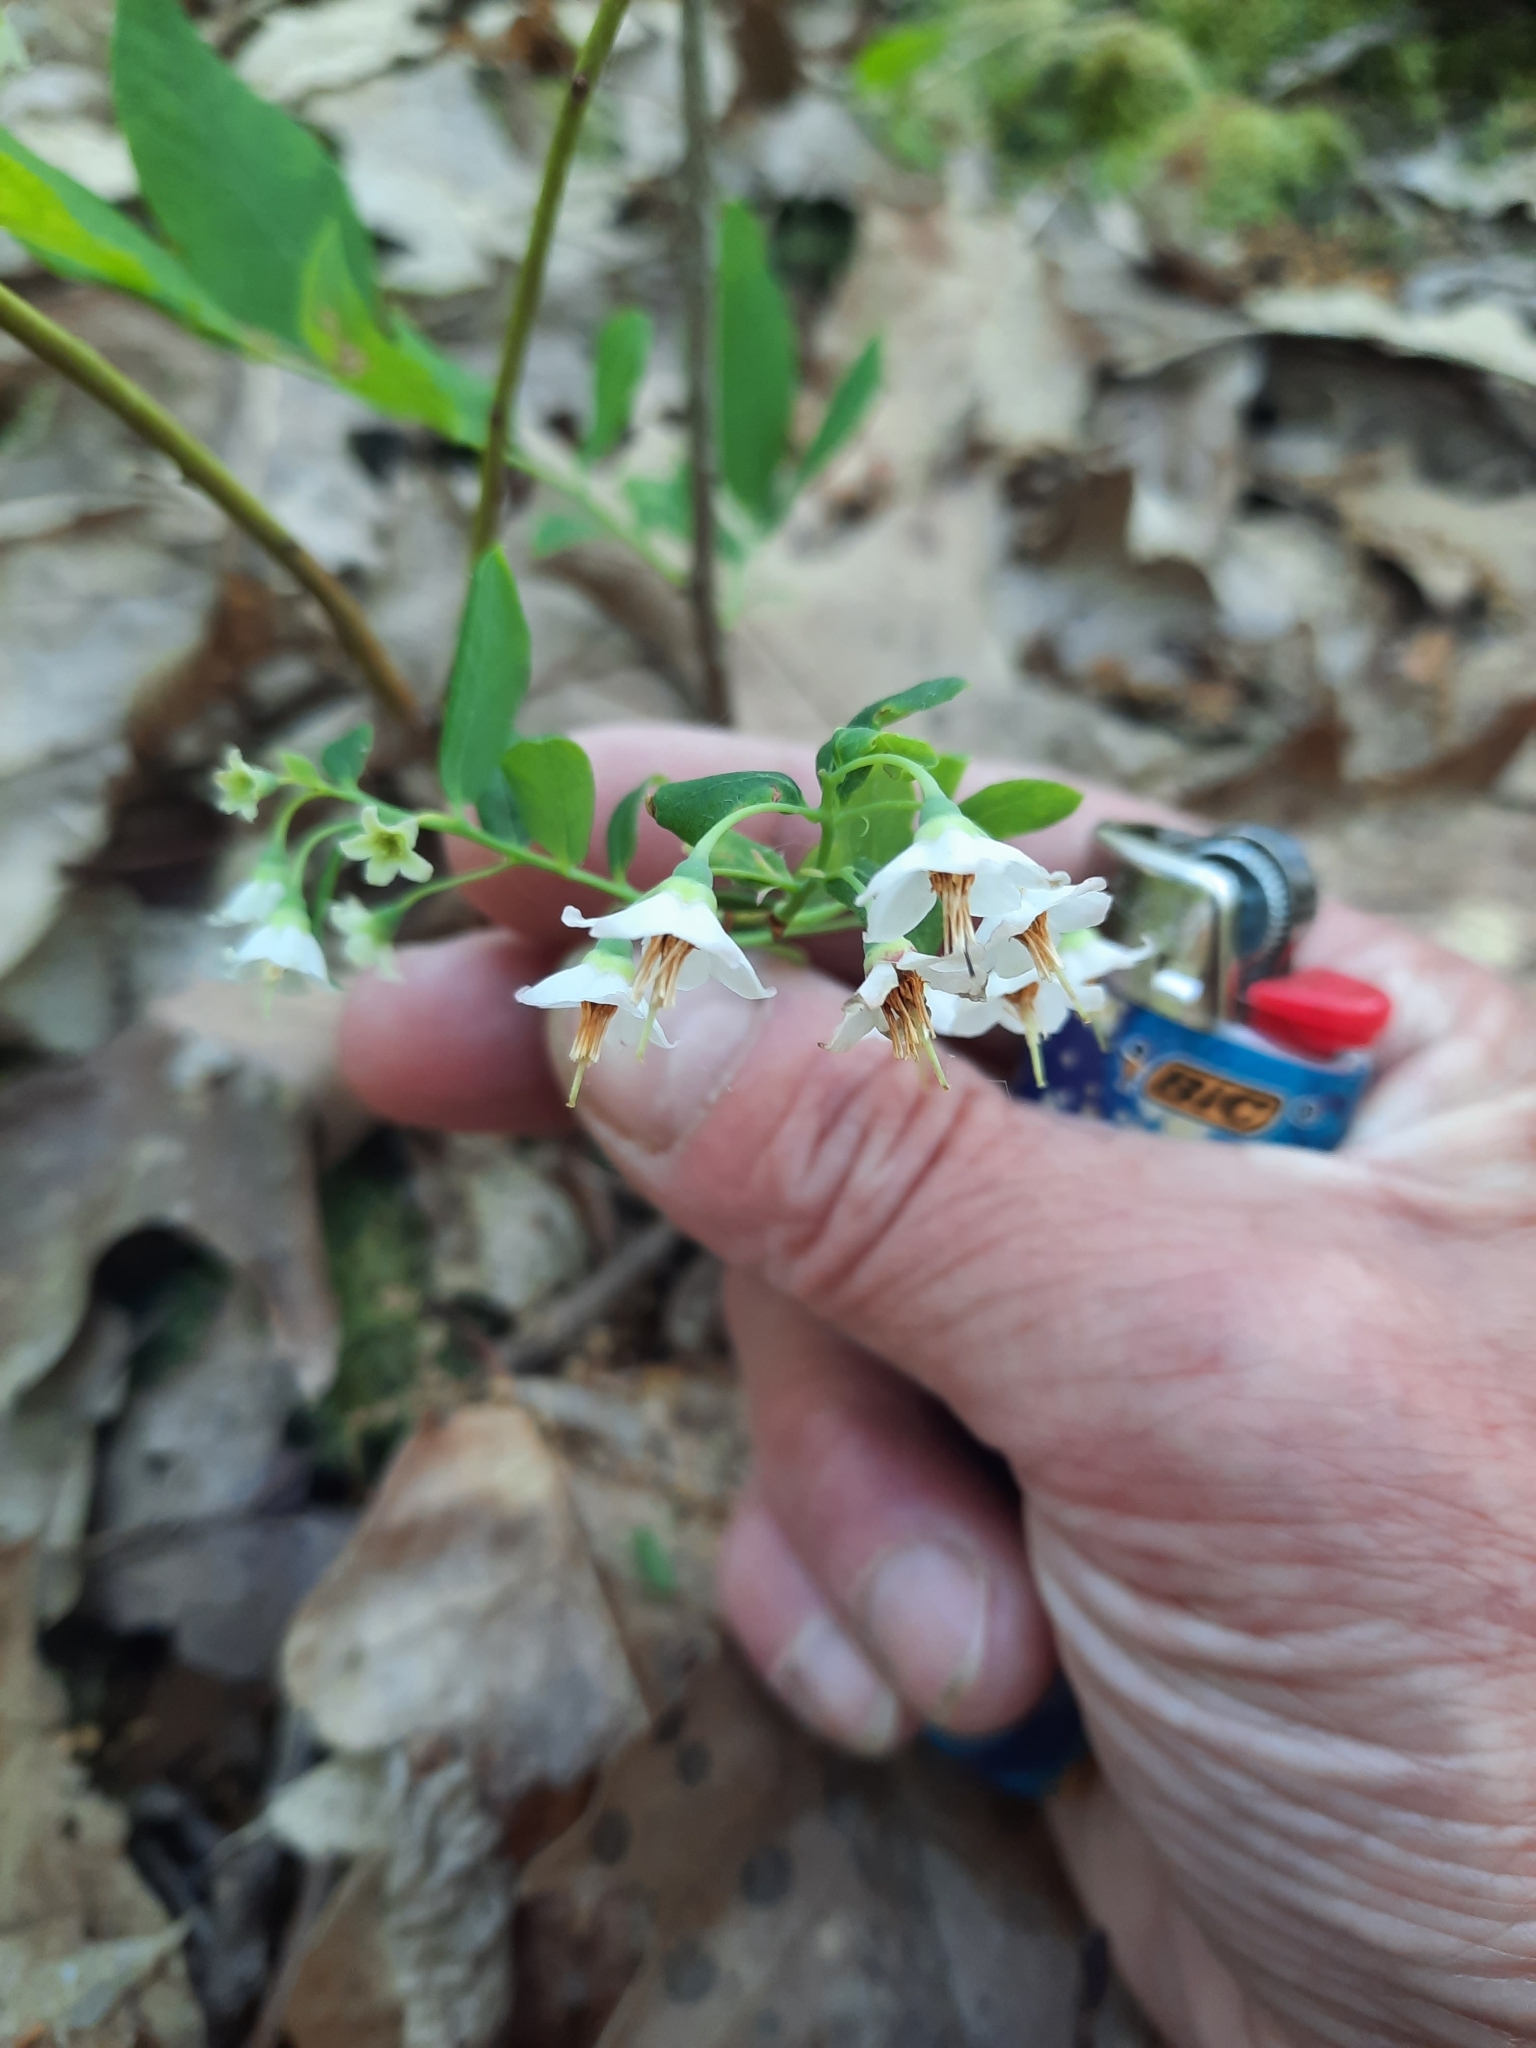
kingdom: Plantae
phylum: Tracheophyta
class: Magnoliopsida
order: Ericales
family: Ericaceae
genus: Vaccinium
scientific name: Vaccinium stamineum
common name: Deerberry
